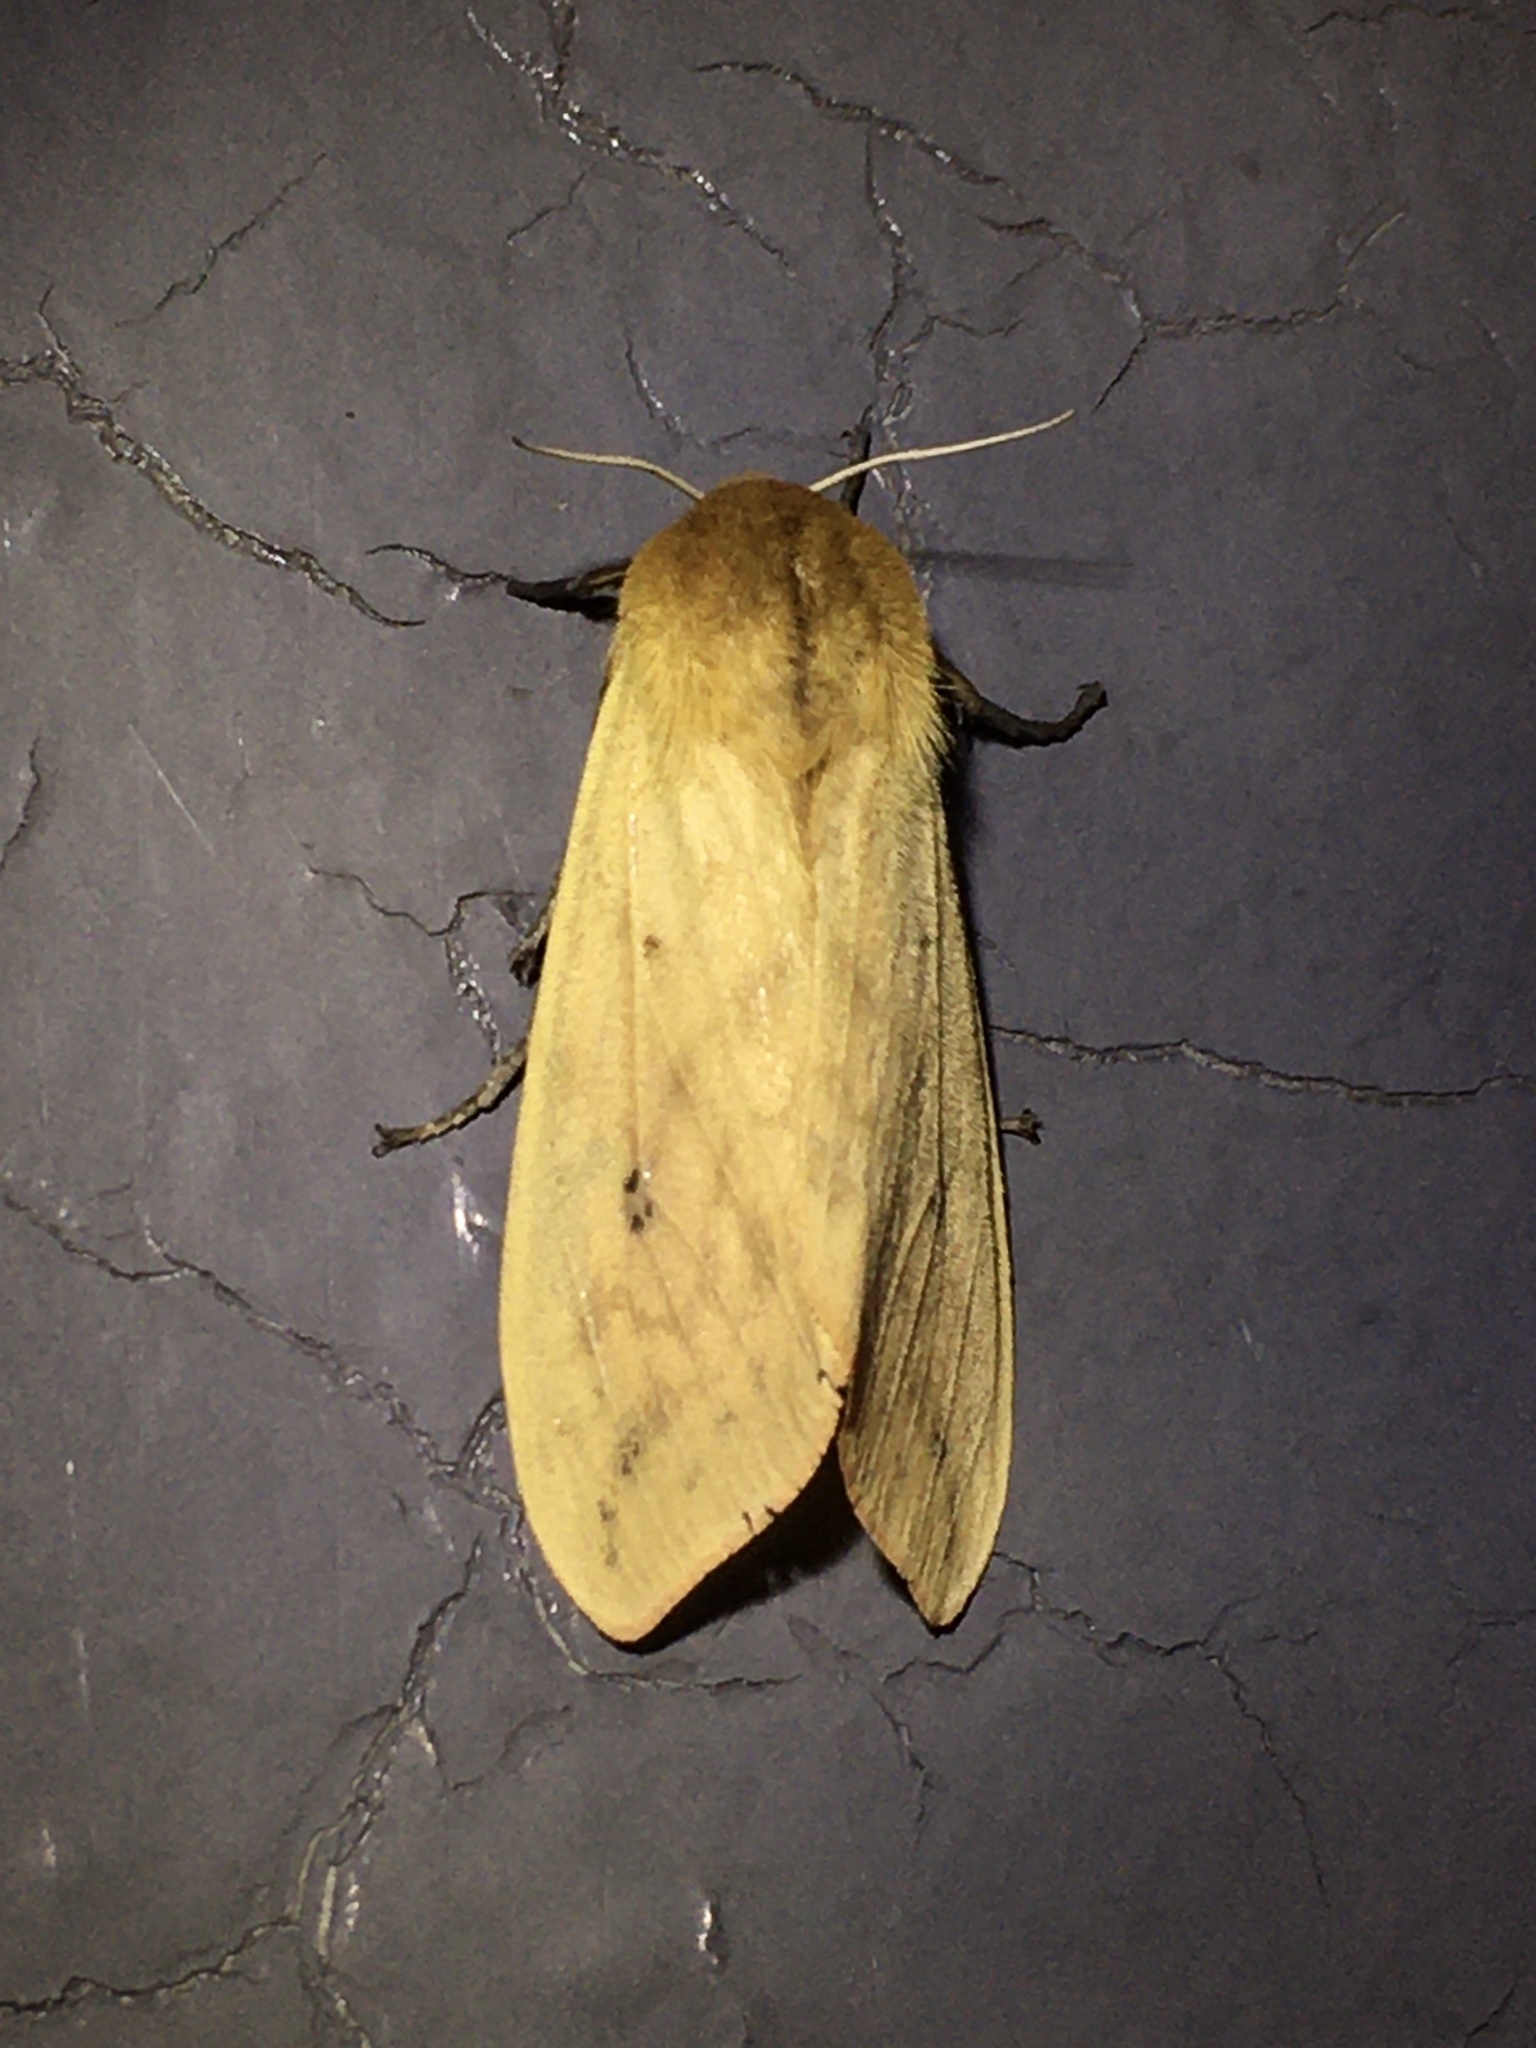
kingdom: Animalia
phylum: Arthropoda
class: Insecta
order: Lepidoptera
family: Erebidae
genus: Pyrrharctia
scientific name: Pyrrharctia isabella
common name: Isabella tiger moth
